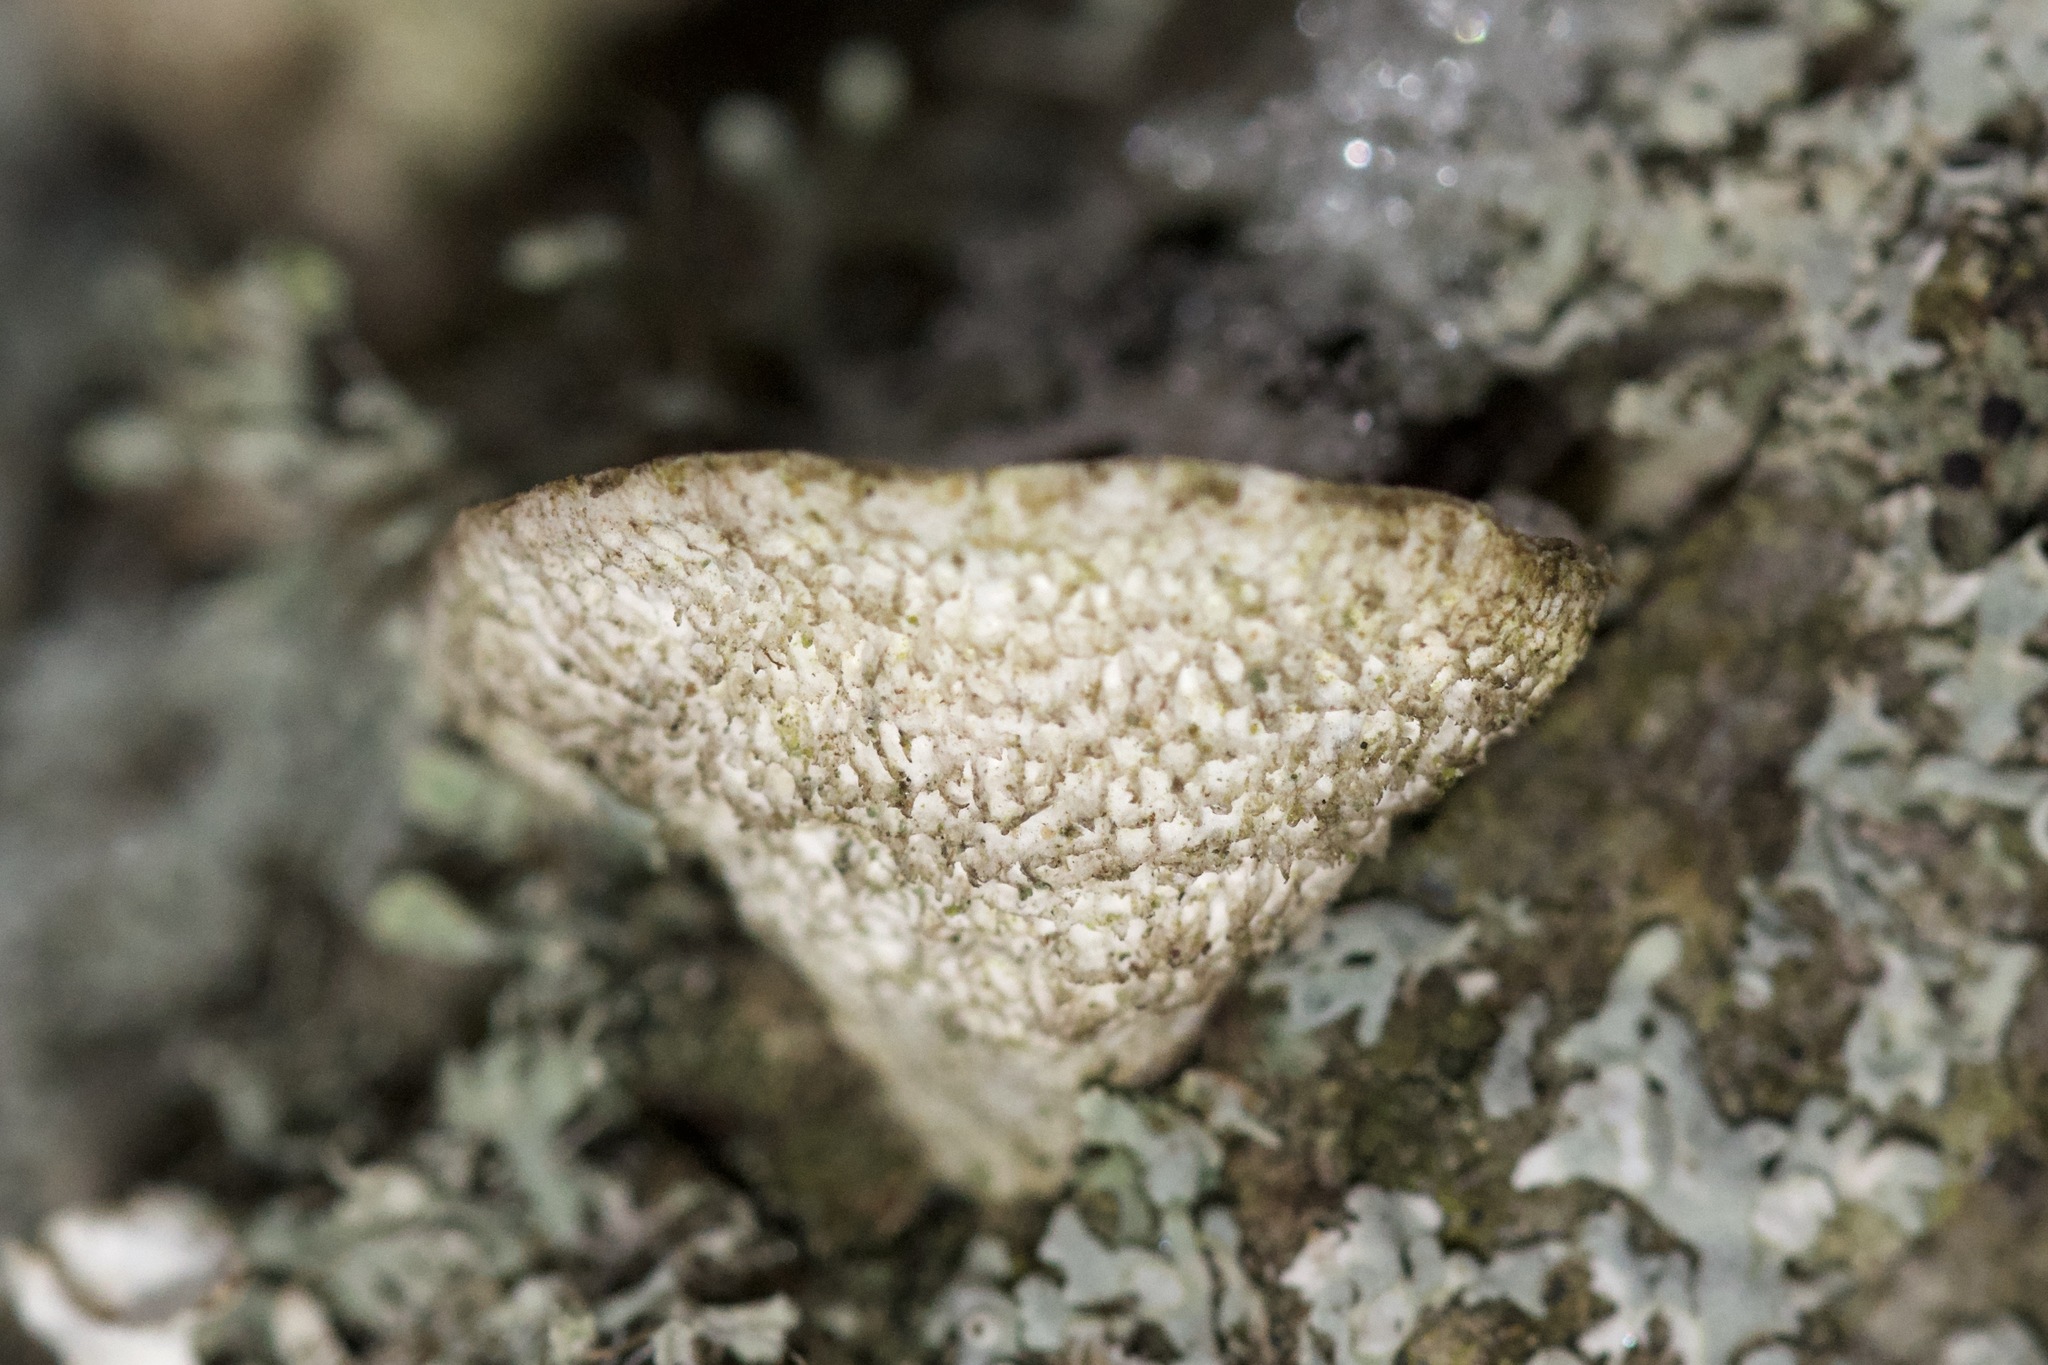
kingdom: Fungi
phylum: Basidiomycota
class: Agaricomycetes
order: Polyporales
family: Polyporaceae
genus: Poronidulus
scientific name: Poronidulus conchifer
